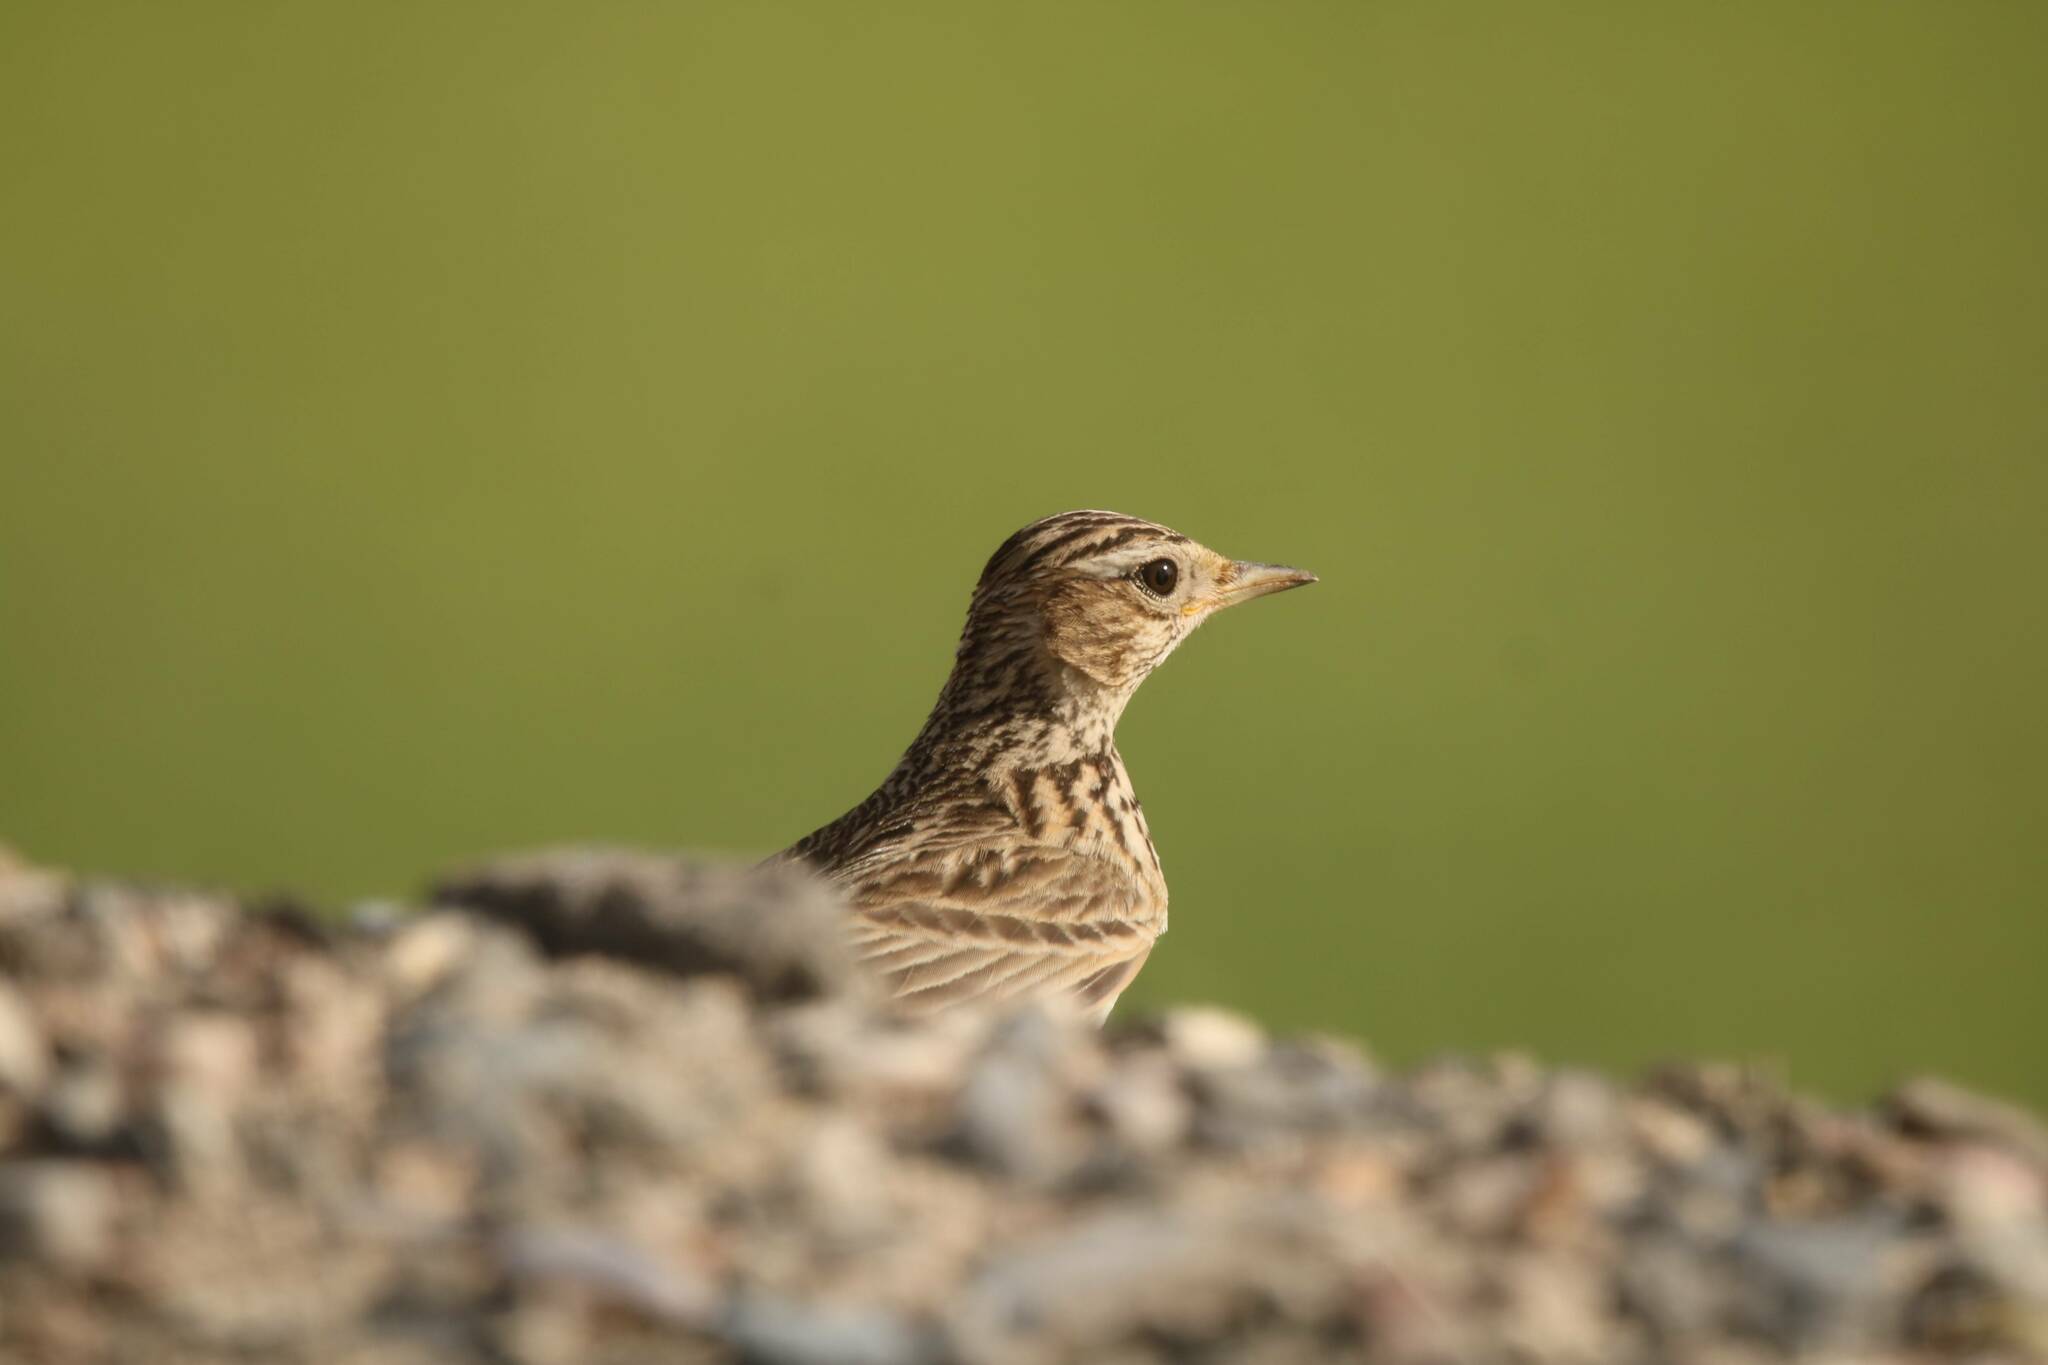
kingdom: Animalia
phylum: Chordata
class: Aves
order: Passeriformes
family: Alaudidae
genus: Alauda
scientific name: Alauda arvensis
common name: Eurasian skylark
